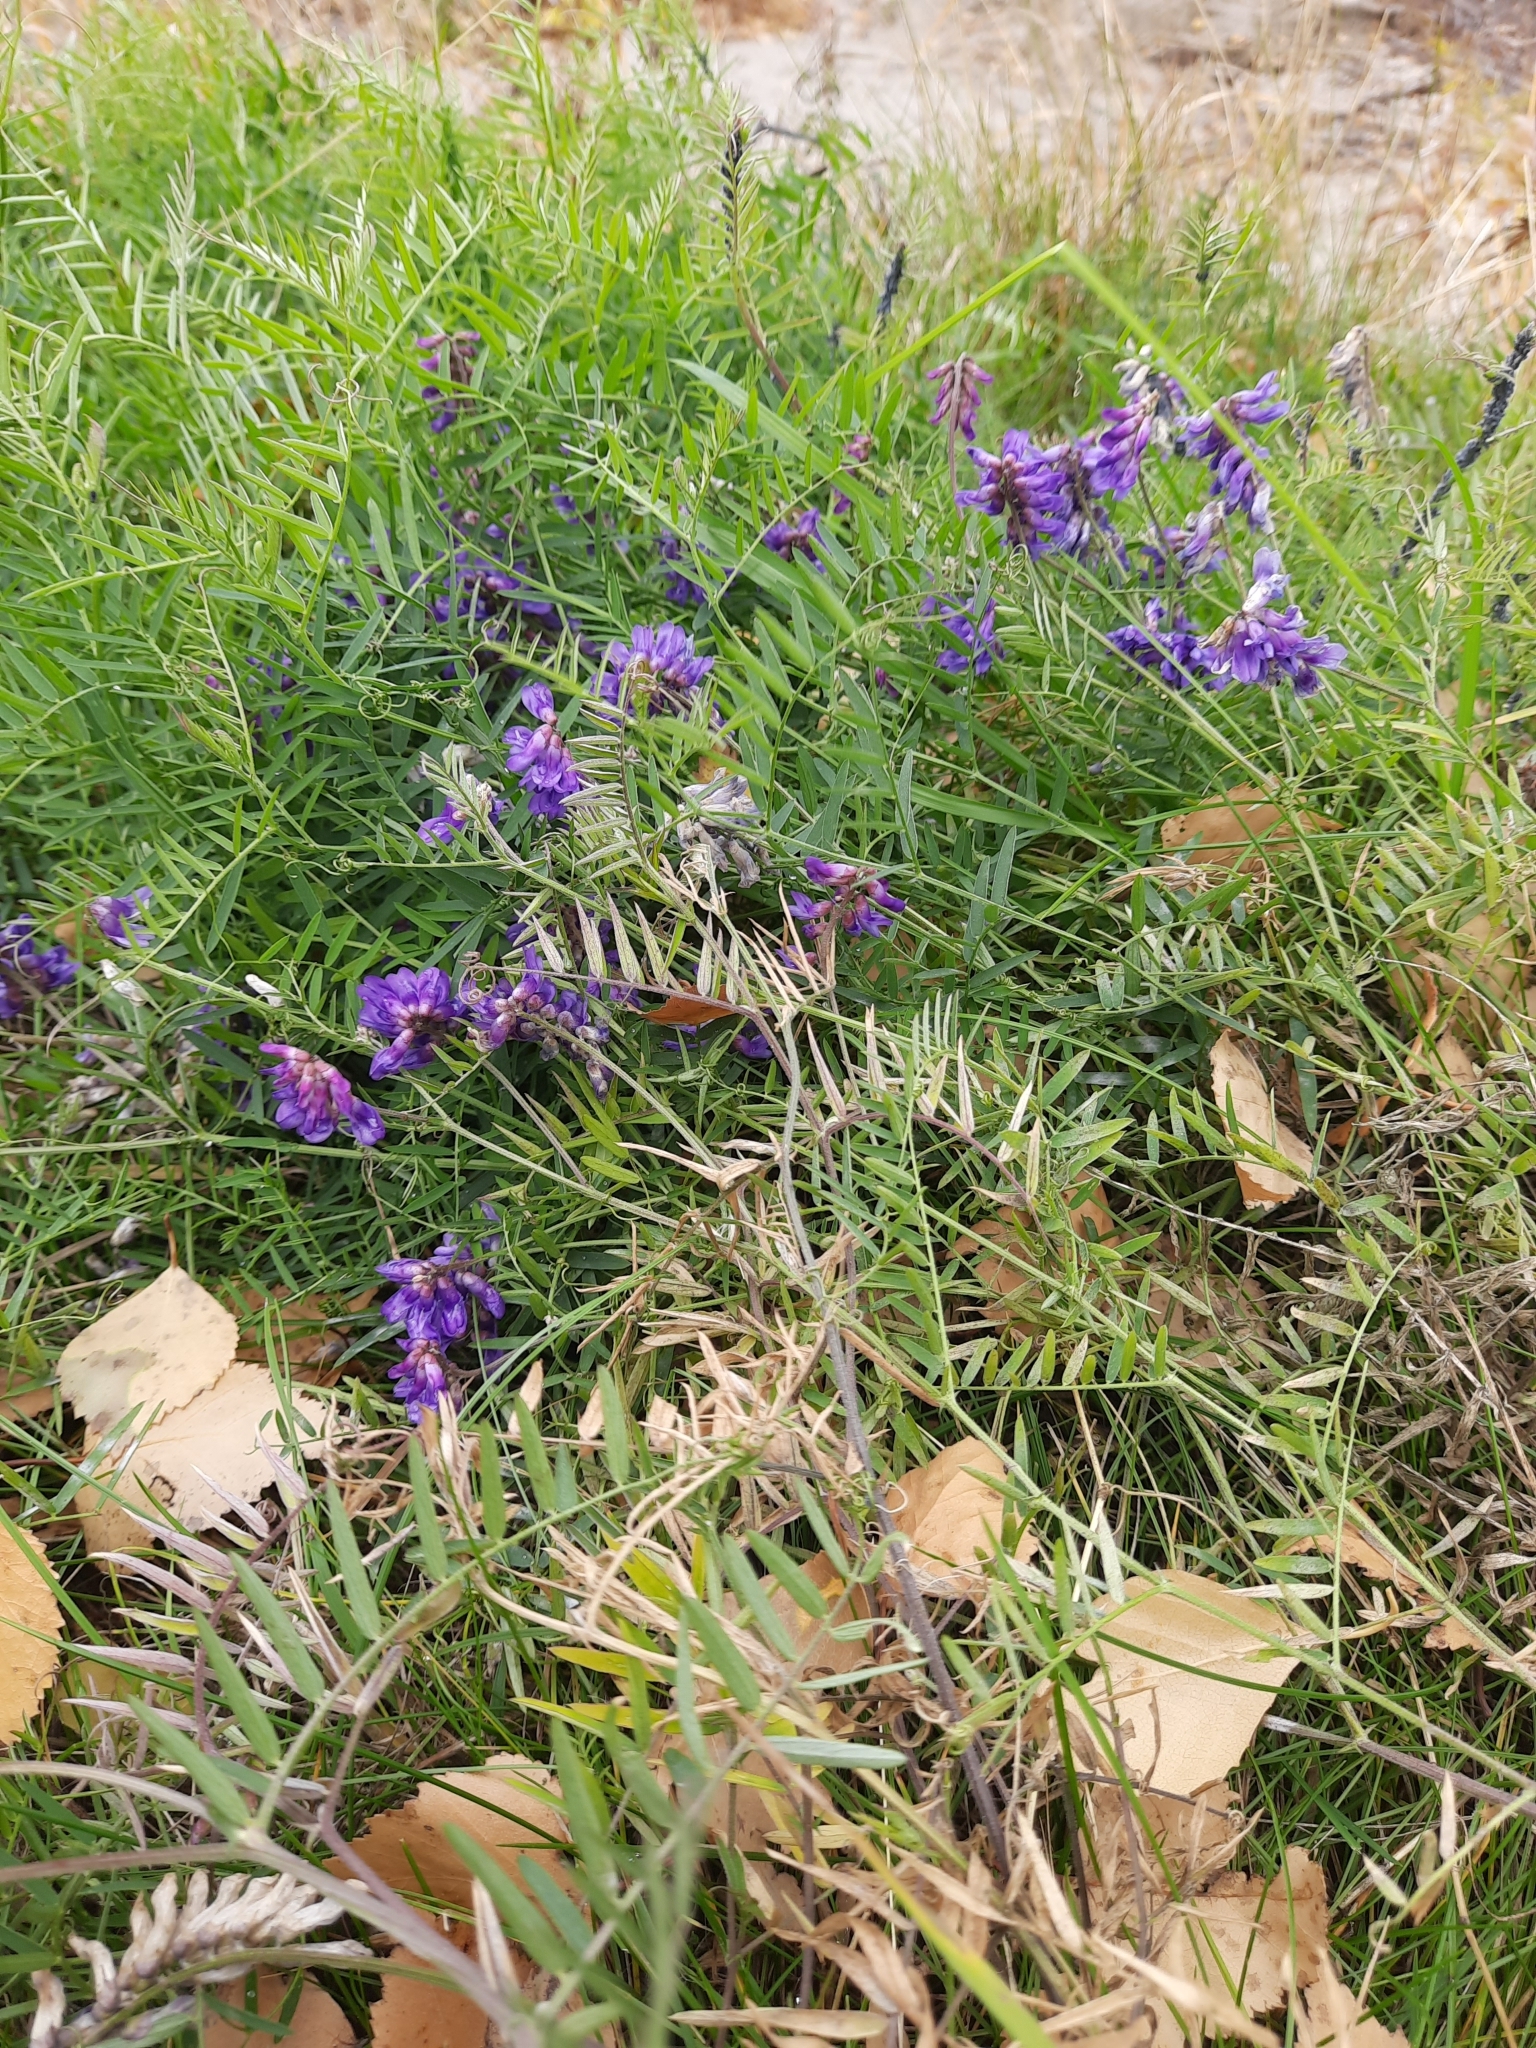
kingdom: Plantae
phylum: Tracheophyta
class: Magnoliopsida
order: Fabales
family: Fabaceae
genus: Vicia
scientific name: Vicia cracca
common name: Bird vetch
